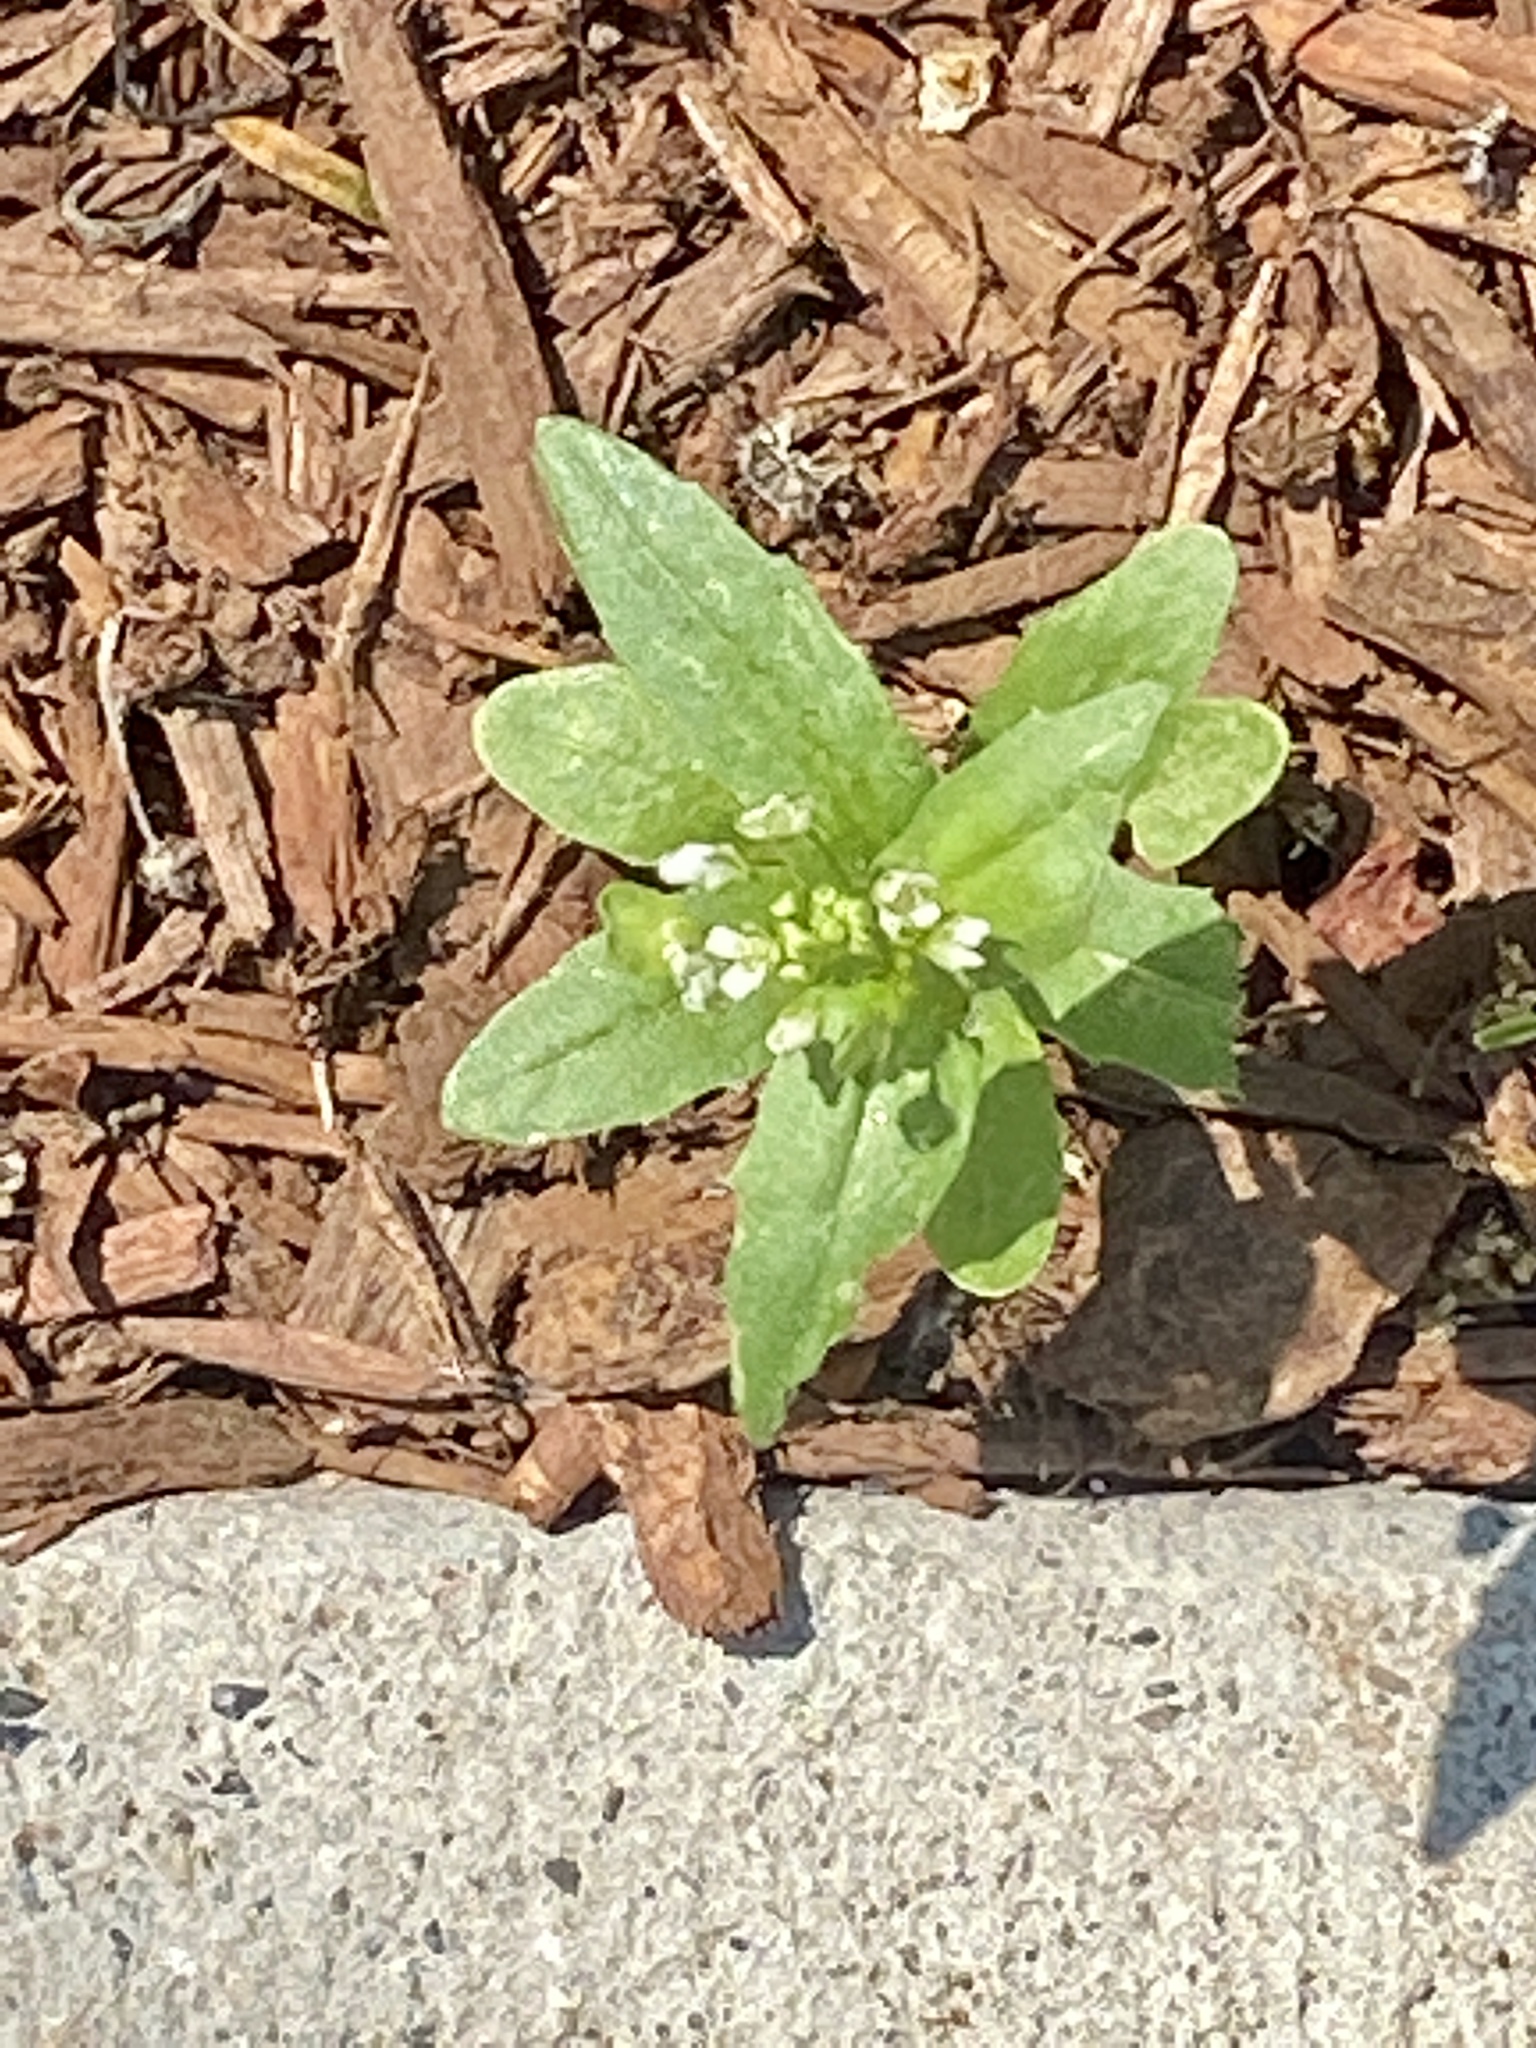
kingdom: Plantae
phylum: Tracheophyta
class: Magnoliopsida
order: Brassicales
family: Brassicaceae
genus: Thlaspi
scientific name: Thlaspi arvense
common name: Field pennycress
